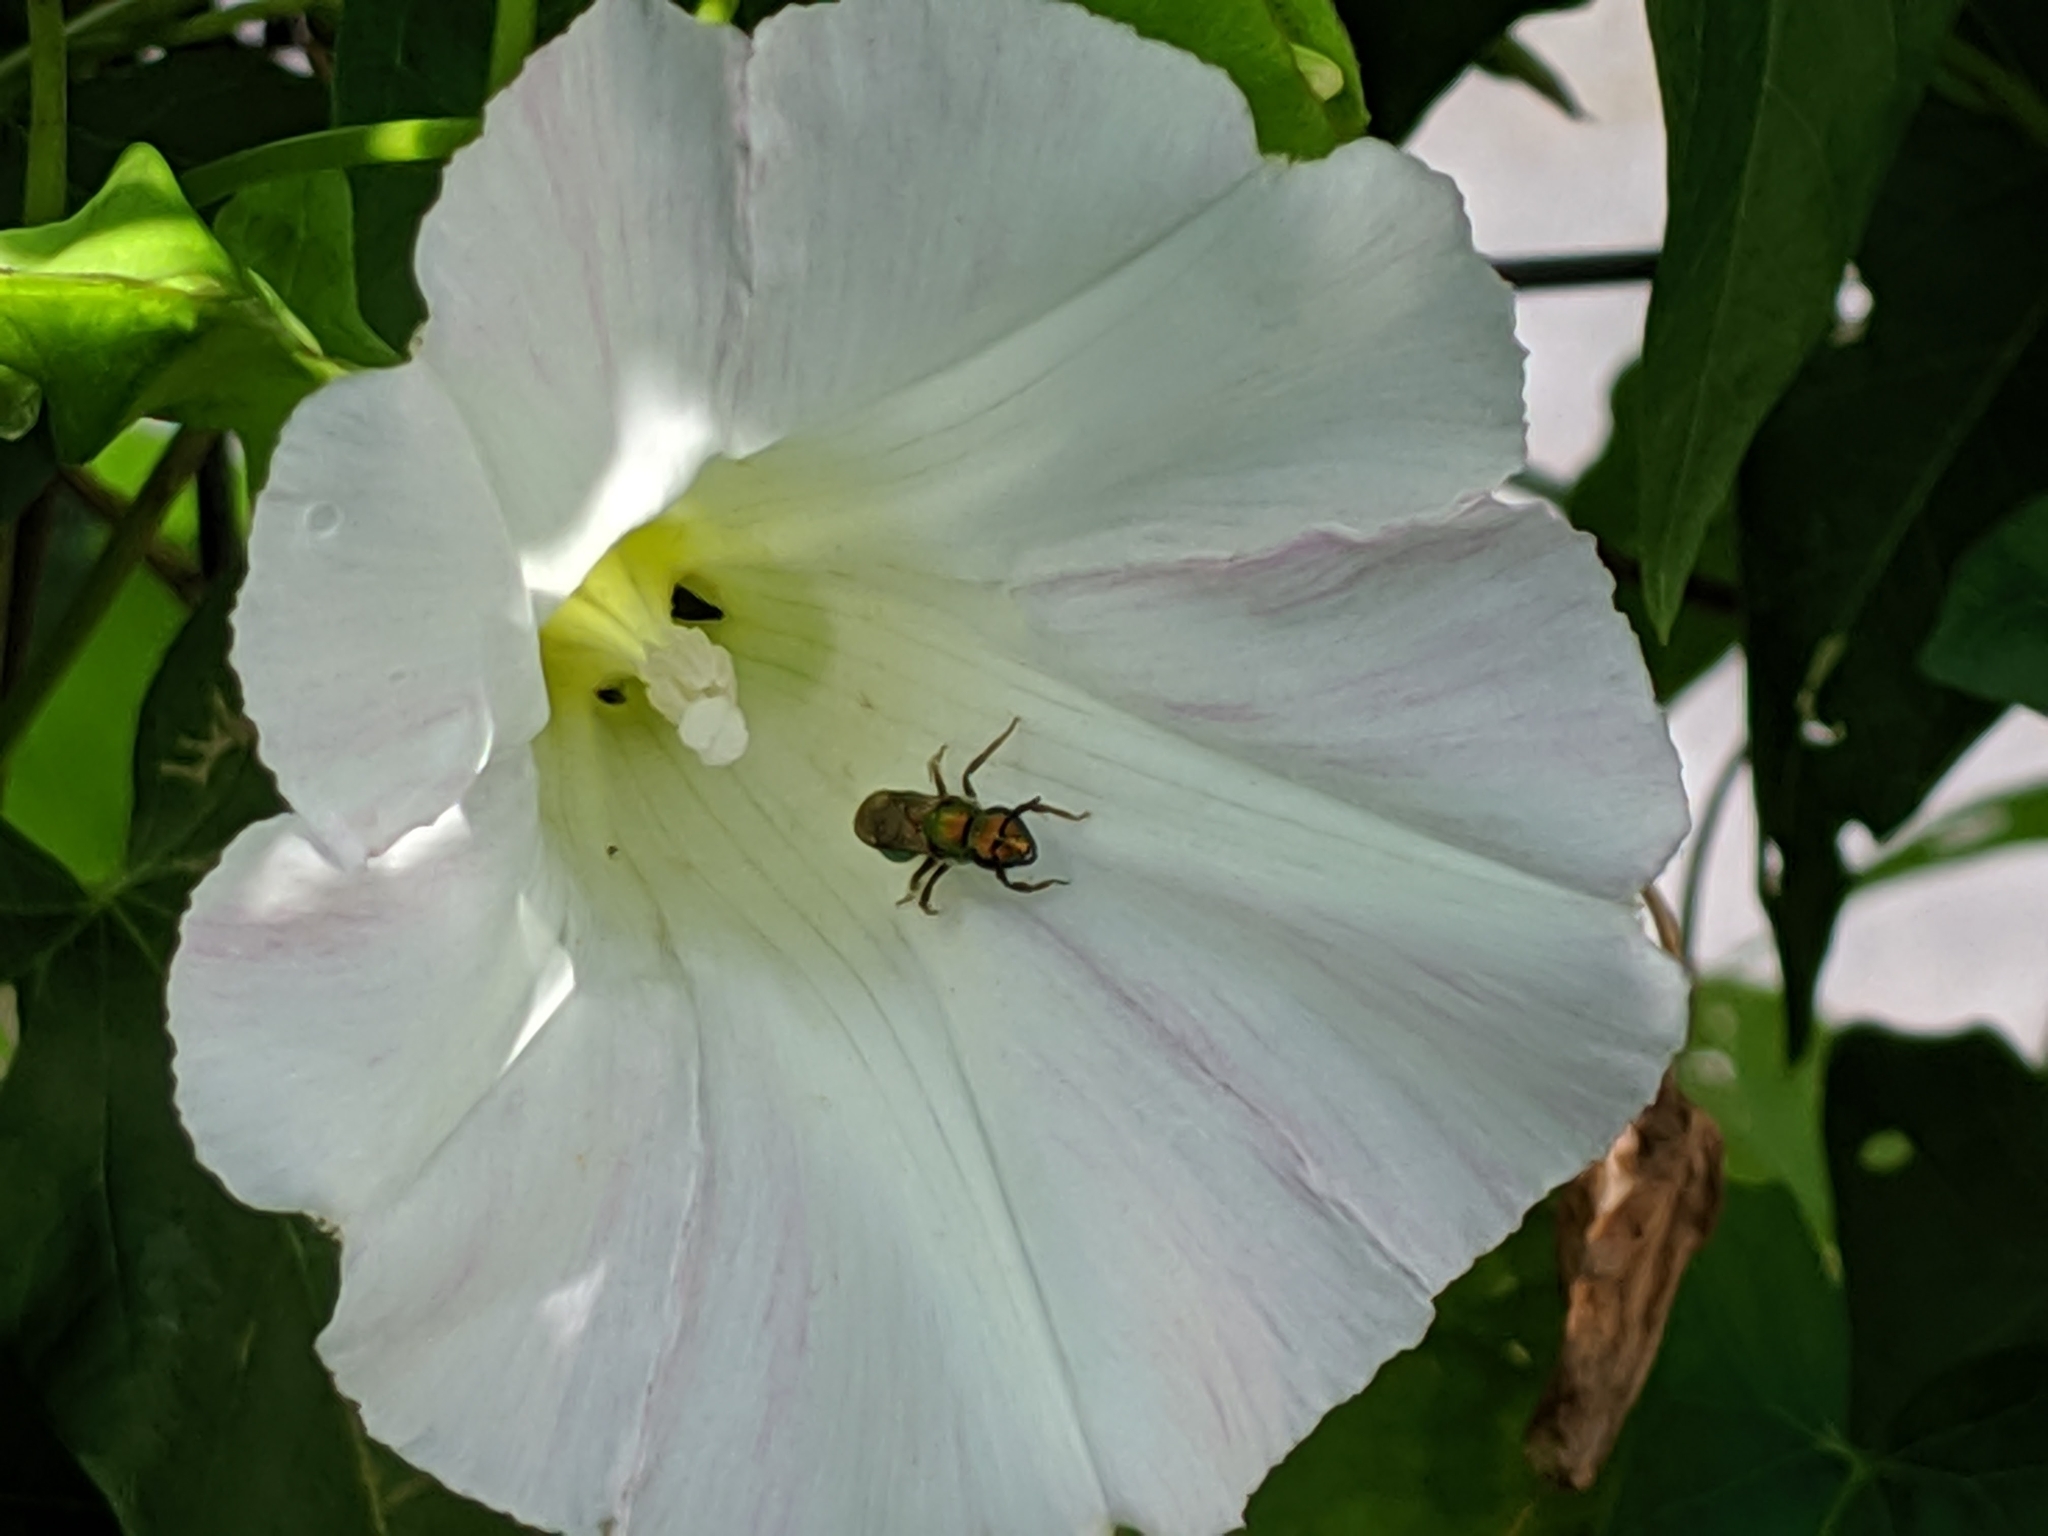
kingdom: Animalia
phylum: Arthropoda
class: Insecta
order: Hymenoptera
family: Halictidae
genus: Augochlora
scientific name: Augochlora pura
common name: Pure green sweat bee
